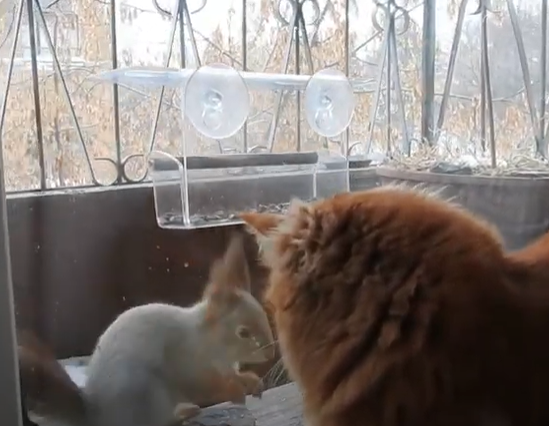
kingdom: Animalia
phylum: Chordata
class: Mammalia
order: Rodentia
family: Sciuridae
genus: Sciurus
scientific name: Sciurus vulgaris
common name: Eurasian red squirrel
